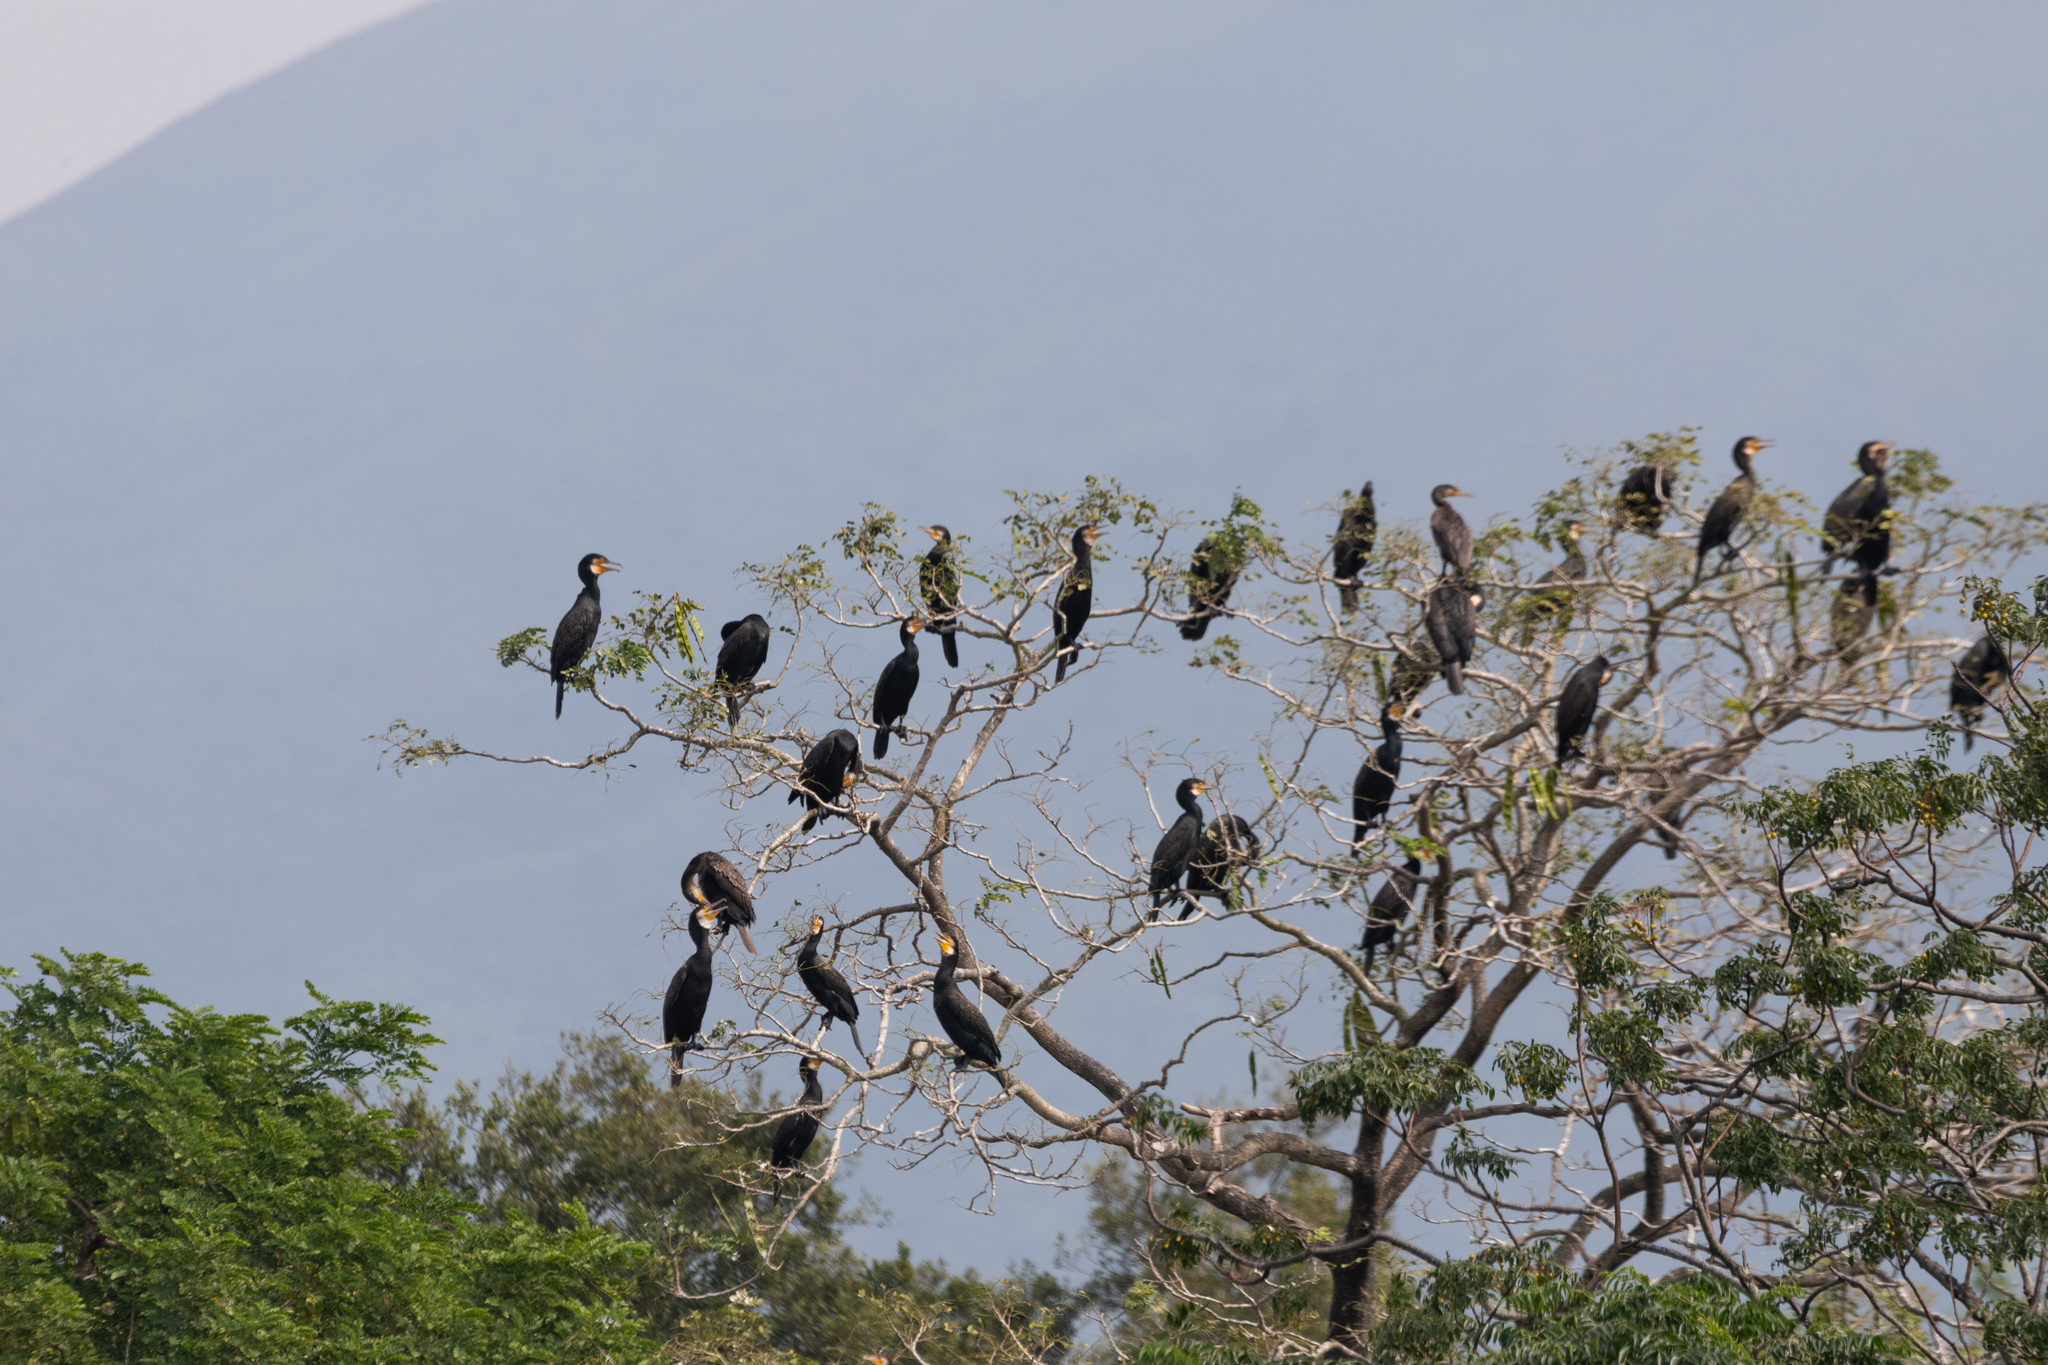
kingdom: Animalia
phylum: Chordata
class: Aves
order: Suliformes
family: Phalacrocoracidae
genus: Phalacrocorax
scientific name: Phalacrocorax carbo
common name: Great cormorant
